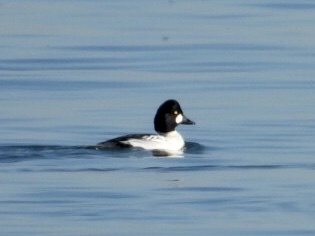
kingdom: Animalia
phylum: Chordata
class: Aves
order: Anseriformes
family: Anatidae
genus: Bucephala
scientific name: Bucephala clangula
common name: Common goldeneye
